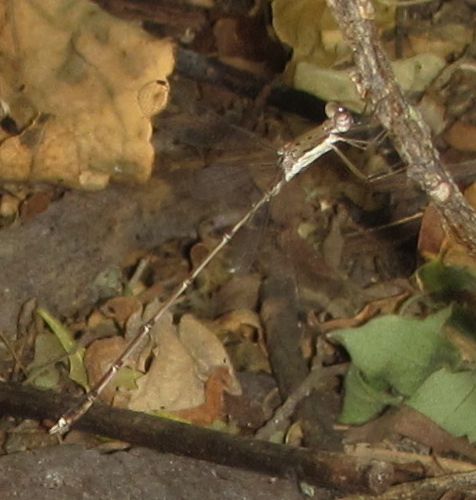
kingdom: Animalia
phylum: Arthropoda
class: Insecta
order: Odonata
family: Lestidae
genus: Lestes
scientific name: Lestes pinheyi
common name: Pinhey's spreadwing
